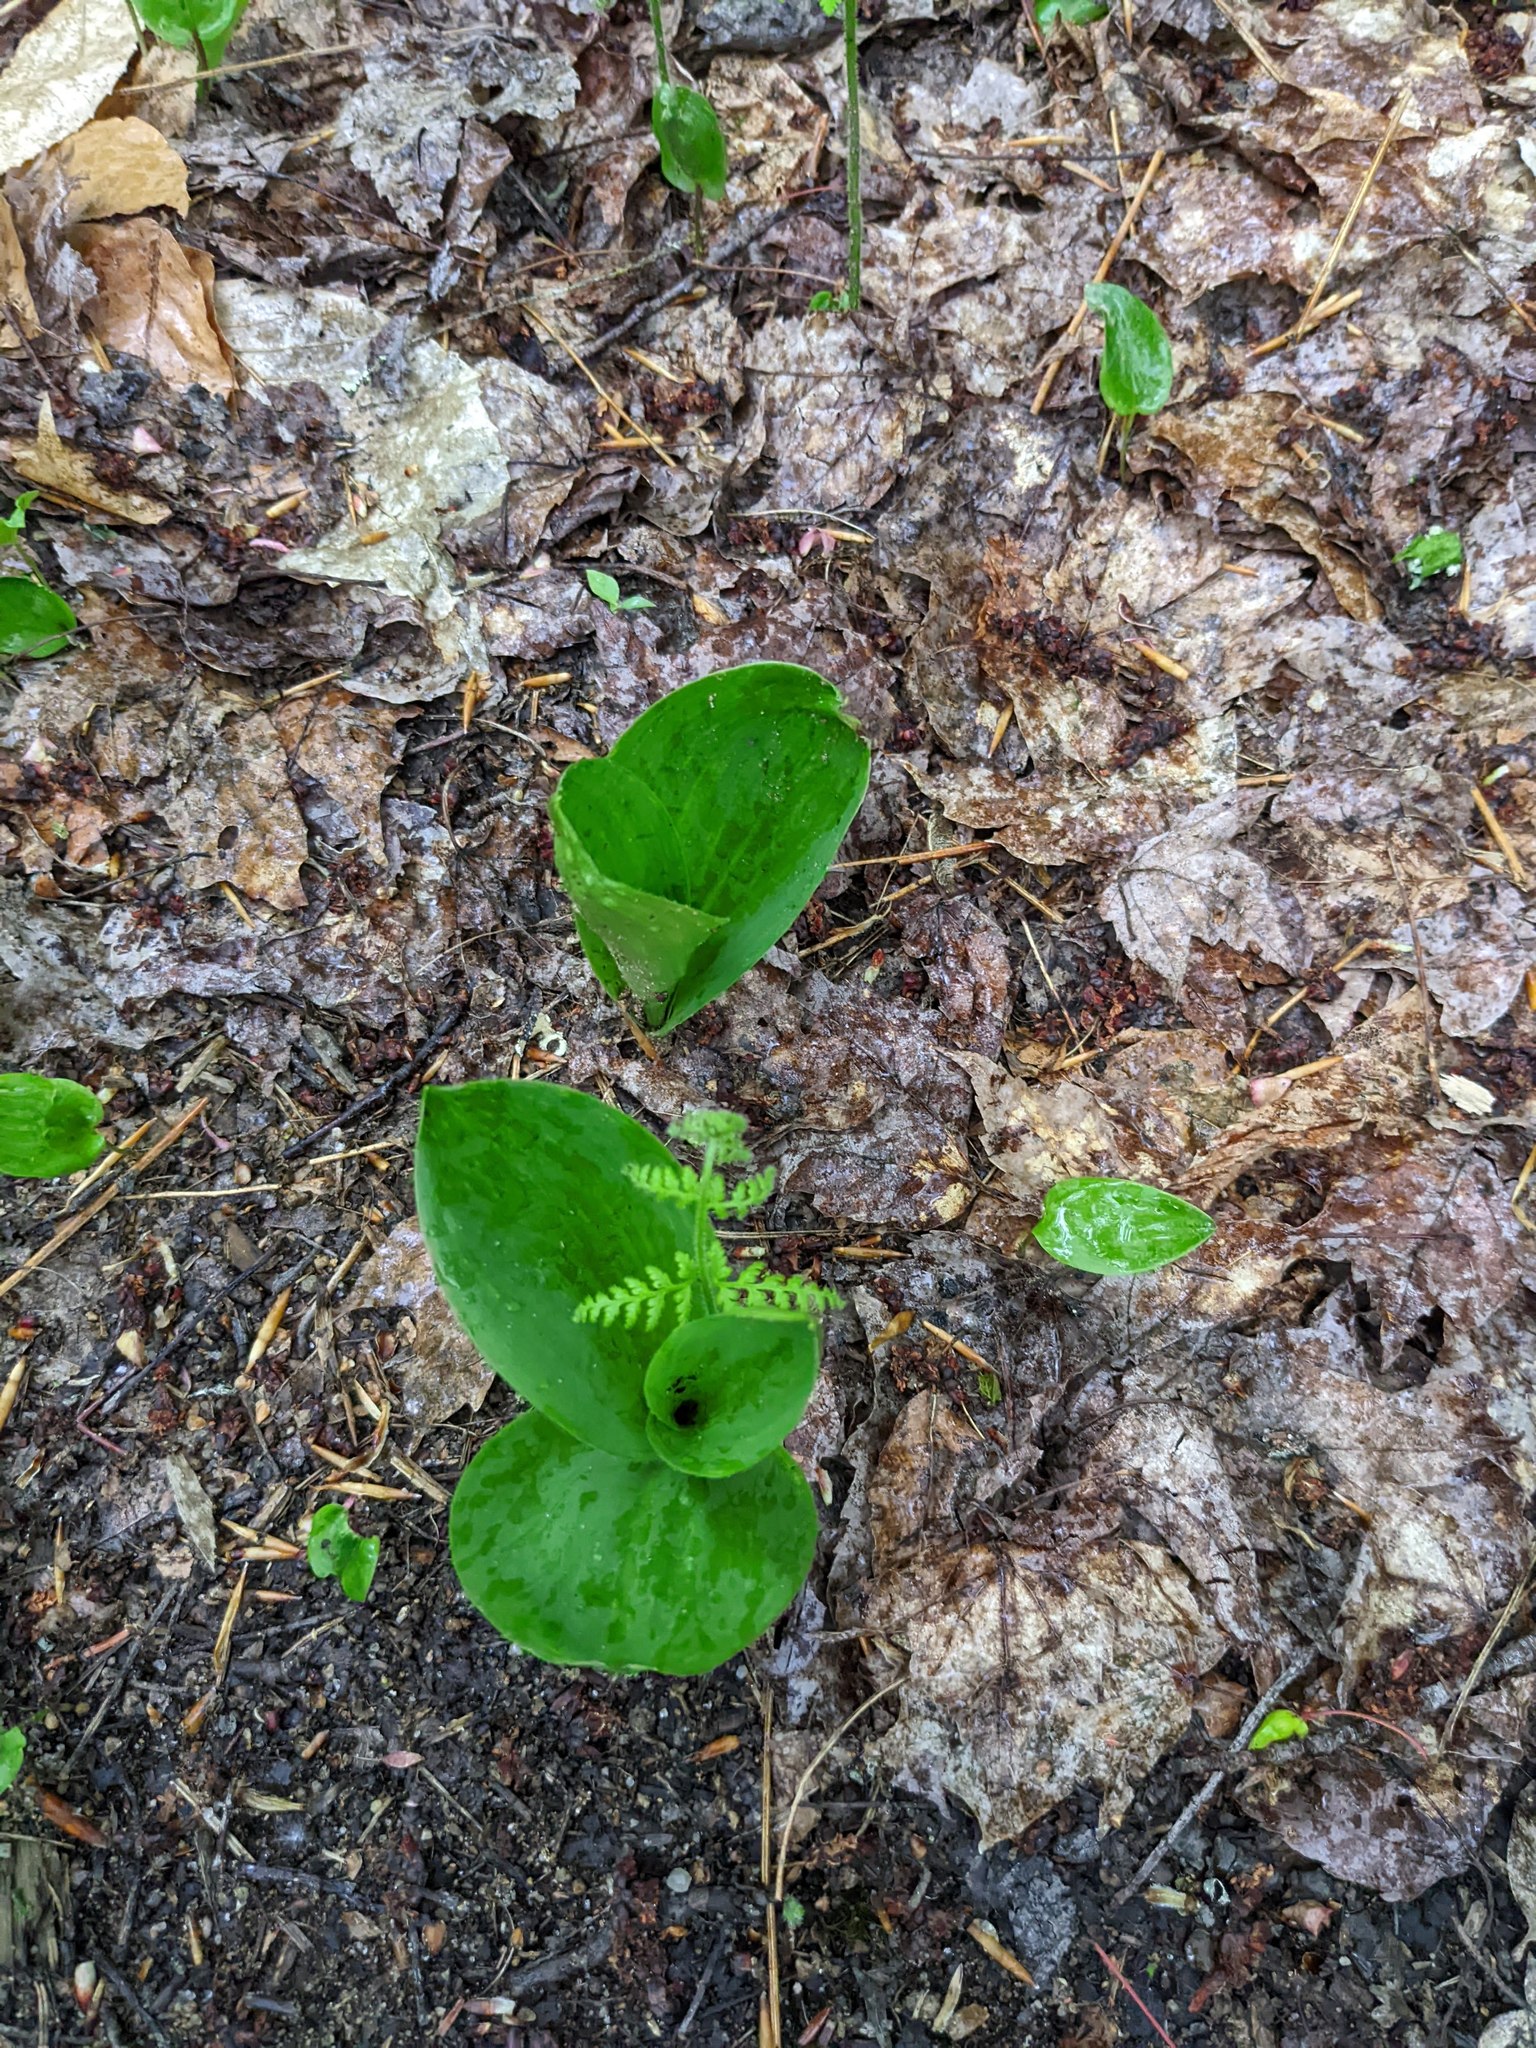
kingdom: Plantae
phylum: Tracheophyta
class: Liliopsida
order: Asparagales
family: Asparagaceae
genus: Maianthemum
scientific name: Maianthemum canadense
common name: False lily-of-the-valley
